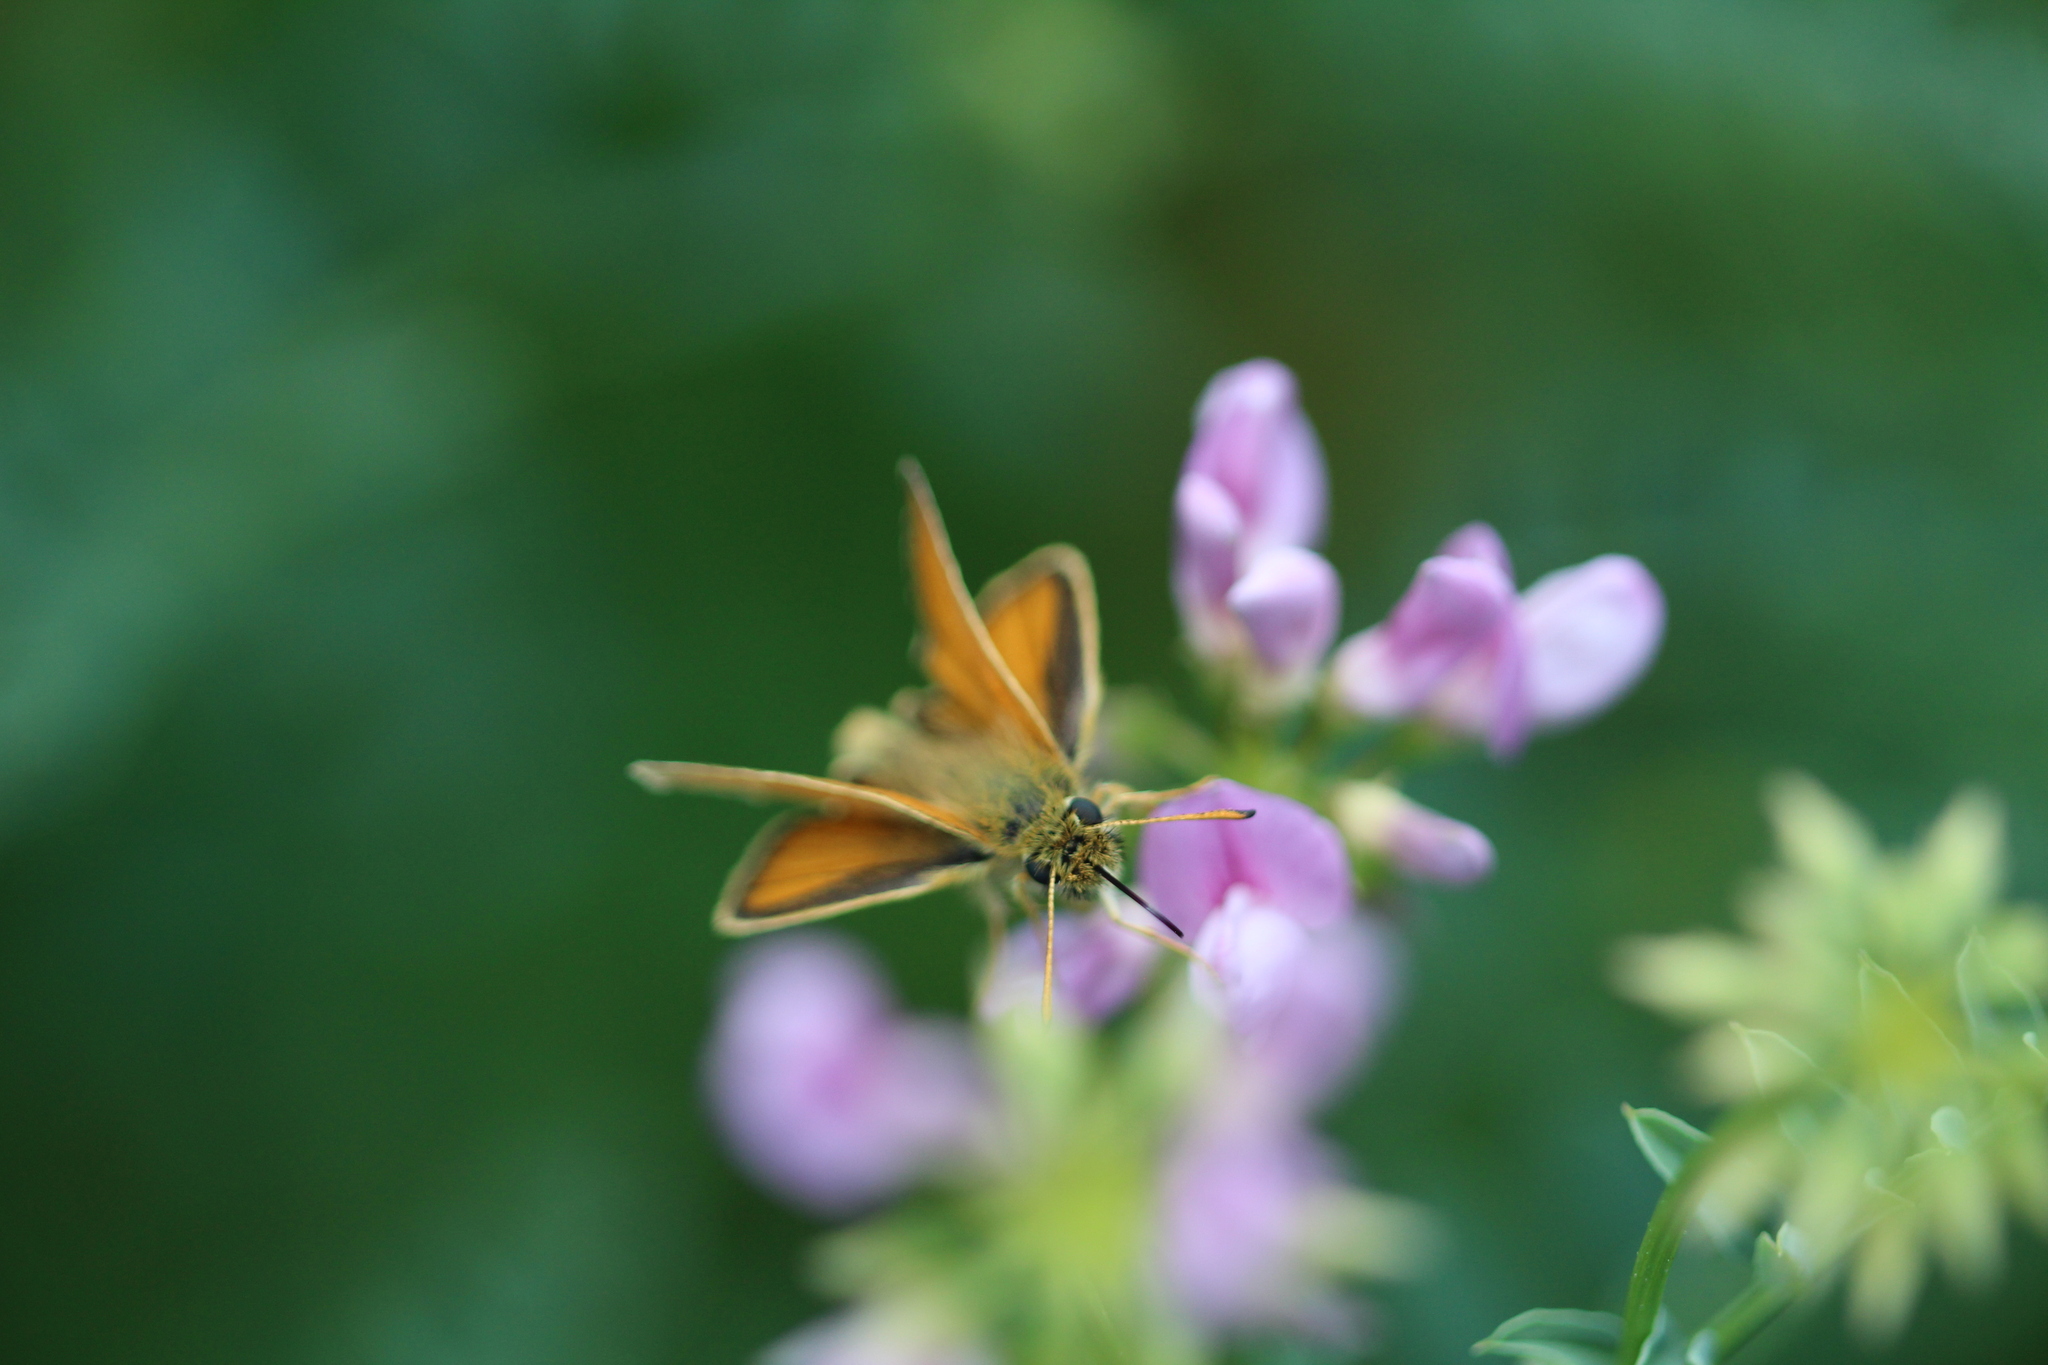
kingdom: Animalia
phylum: Arthropoda
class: Insecta
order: Lepidoptera
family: Hesperiidae
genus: Thymelicus
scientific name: Thymelicus lineola
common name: Essex skipper
